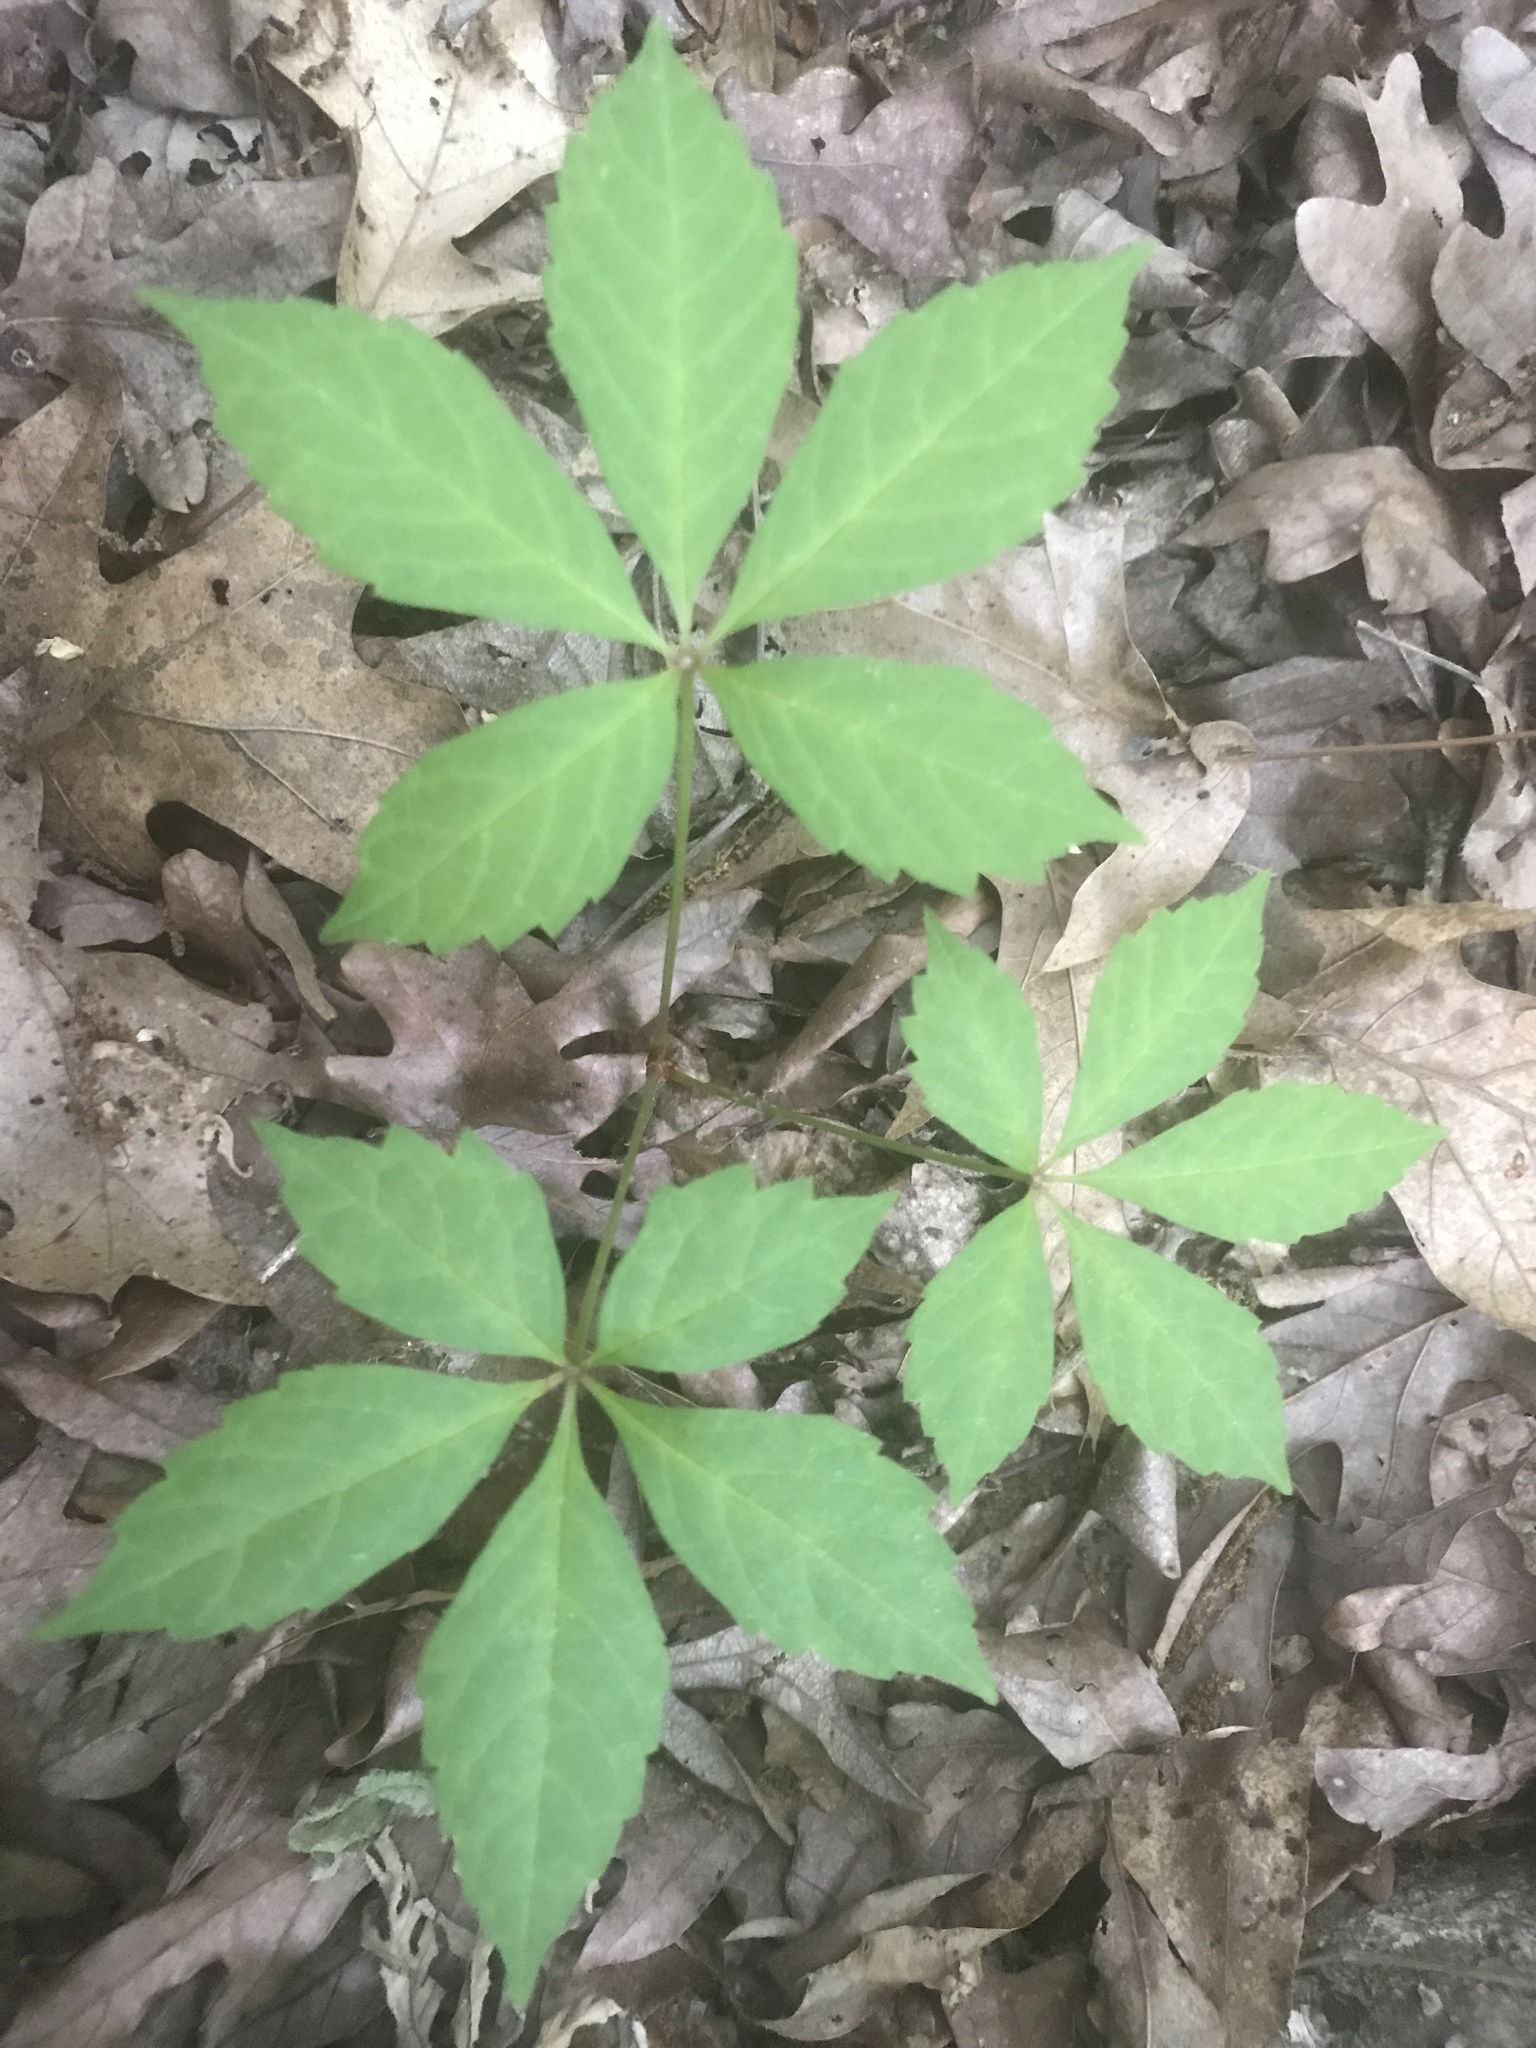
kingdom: Plantae
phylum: Tracheophyta
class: Magnoliopsida
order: Vitales
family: Vitaceae
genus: Parthenocissus
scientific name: Parthenocissus quinquefolia
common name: Virginia-creeper
